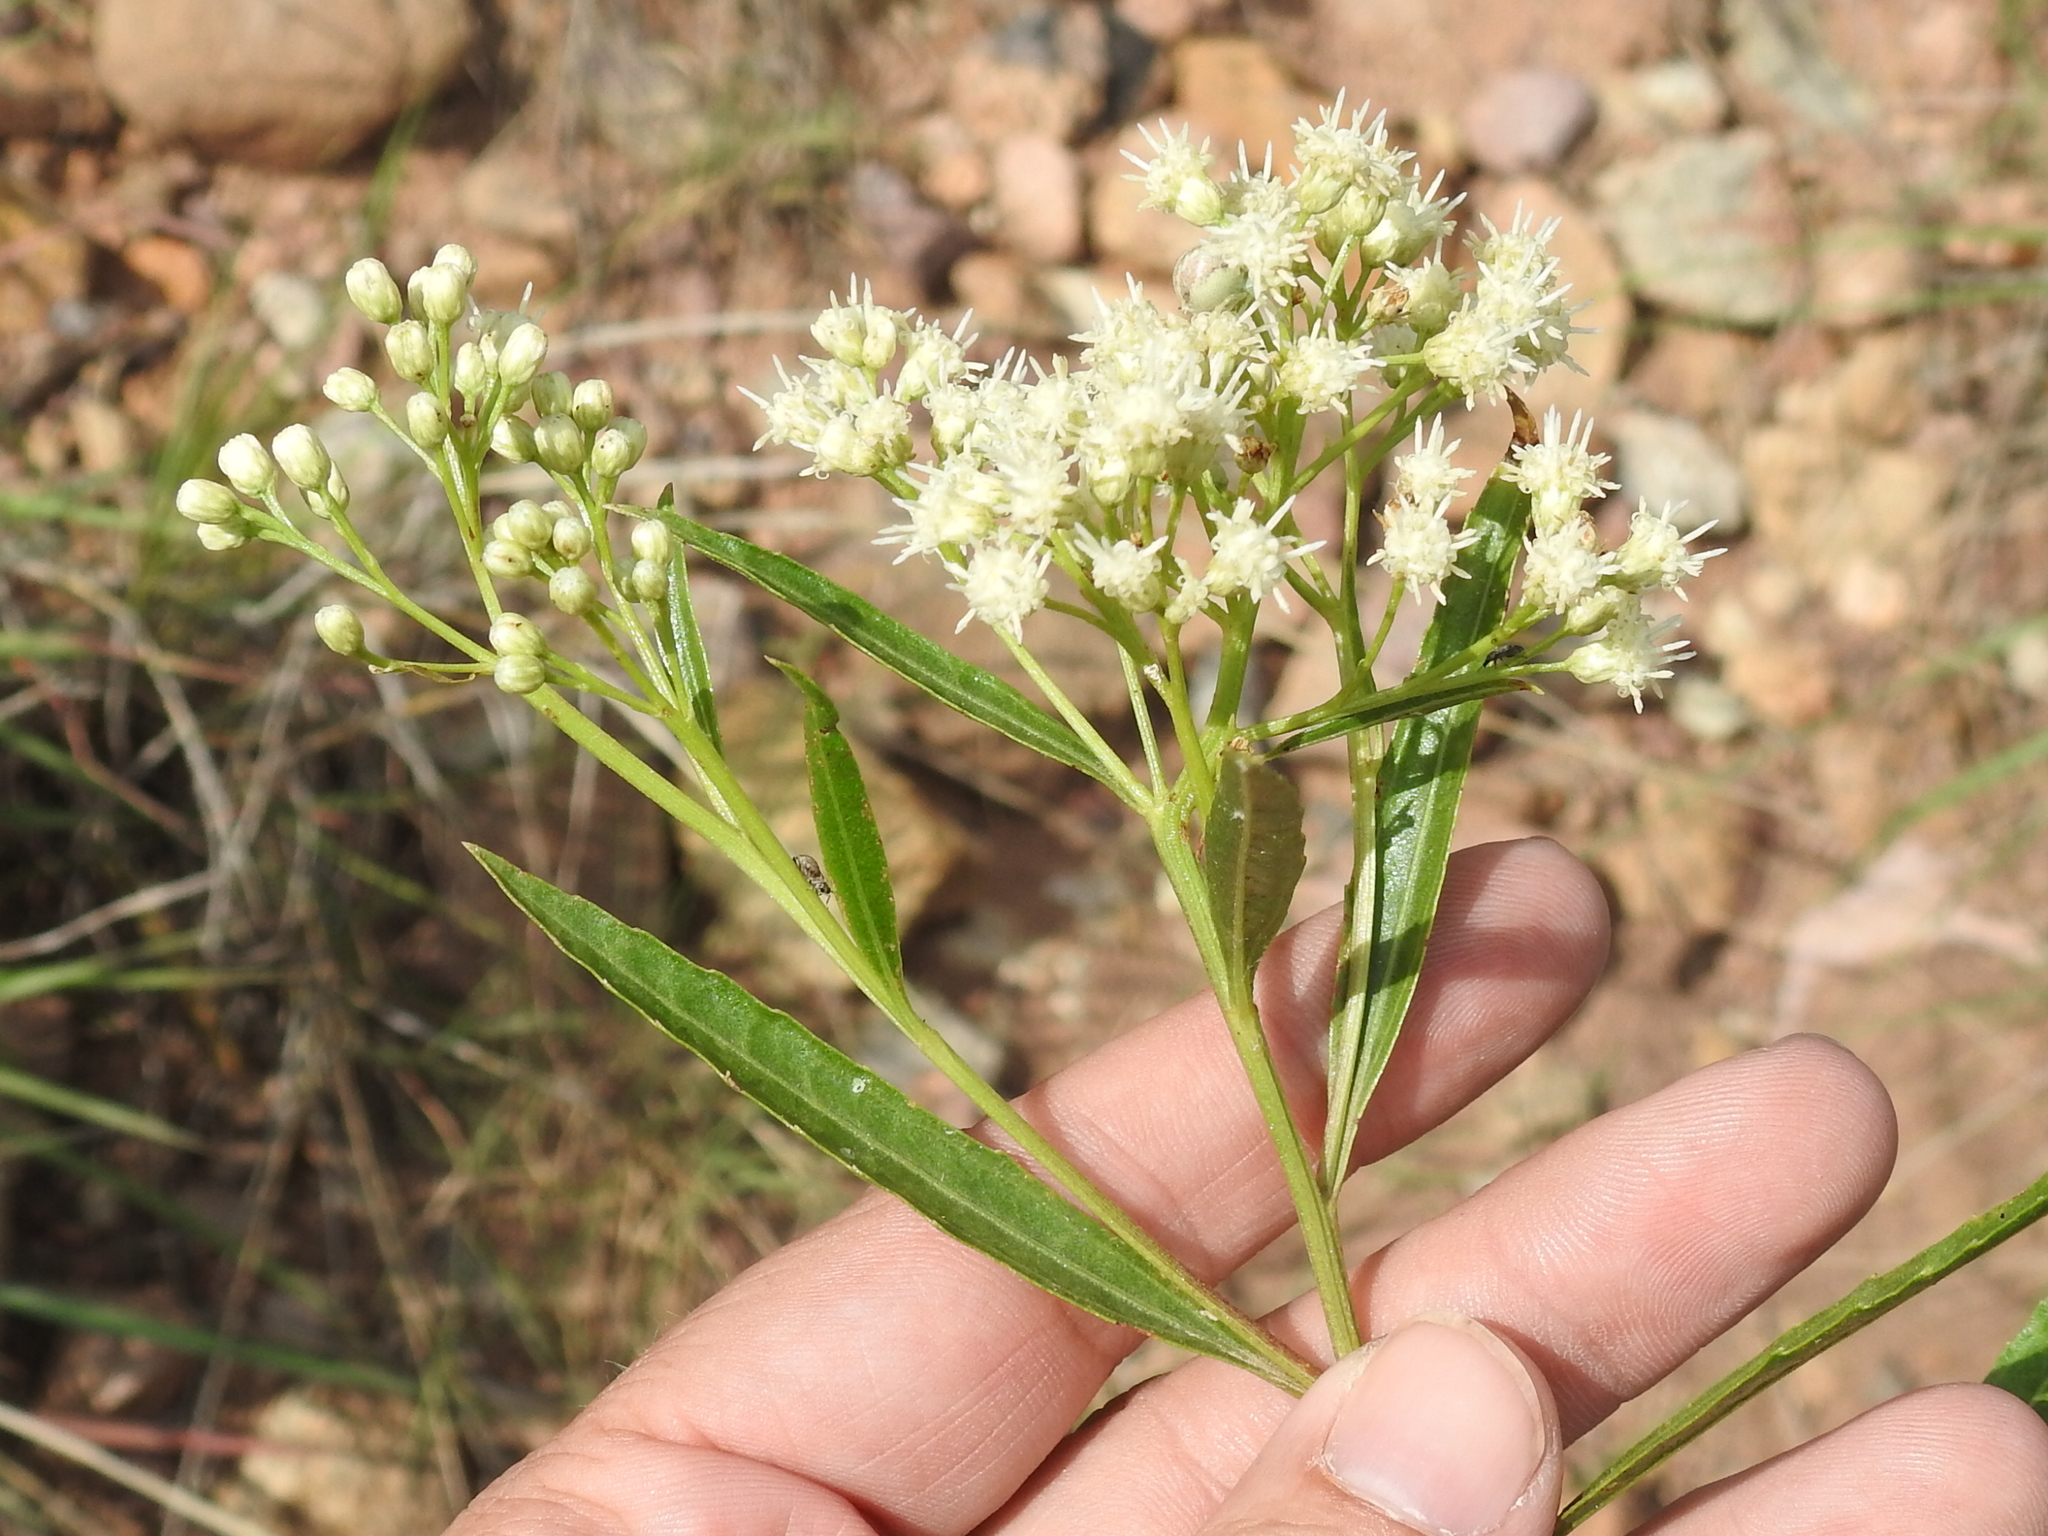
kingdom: Plantae
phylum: Tracheophyta
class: Magnoliopsida
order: Asterales
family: Asteraceae
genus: Baccharis
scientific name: Baccharis salicifolia
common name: Sticky baccharis
